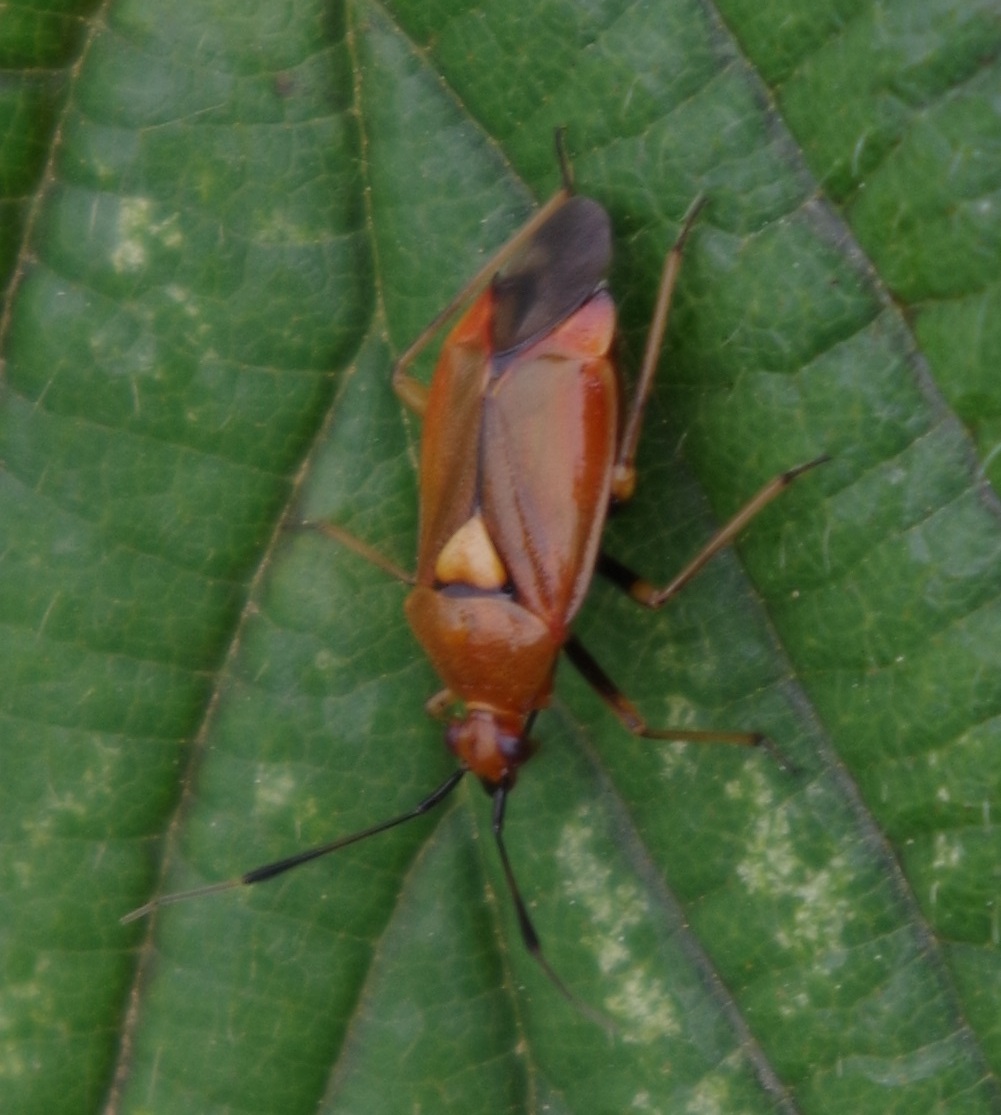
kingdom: Animalia
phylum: Arthropoda
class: Insecta
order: Hemiptera
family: Miridae
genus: Deraeocoris
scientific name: Deraeocoris ruber
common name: Plant bug
